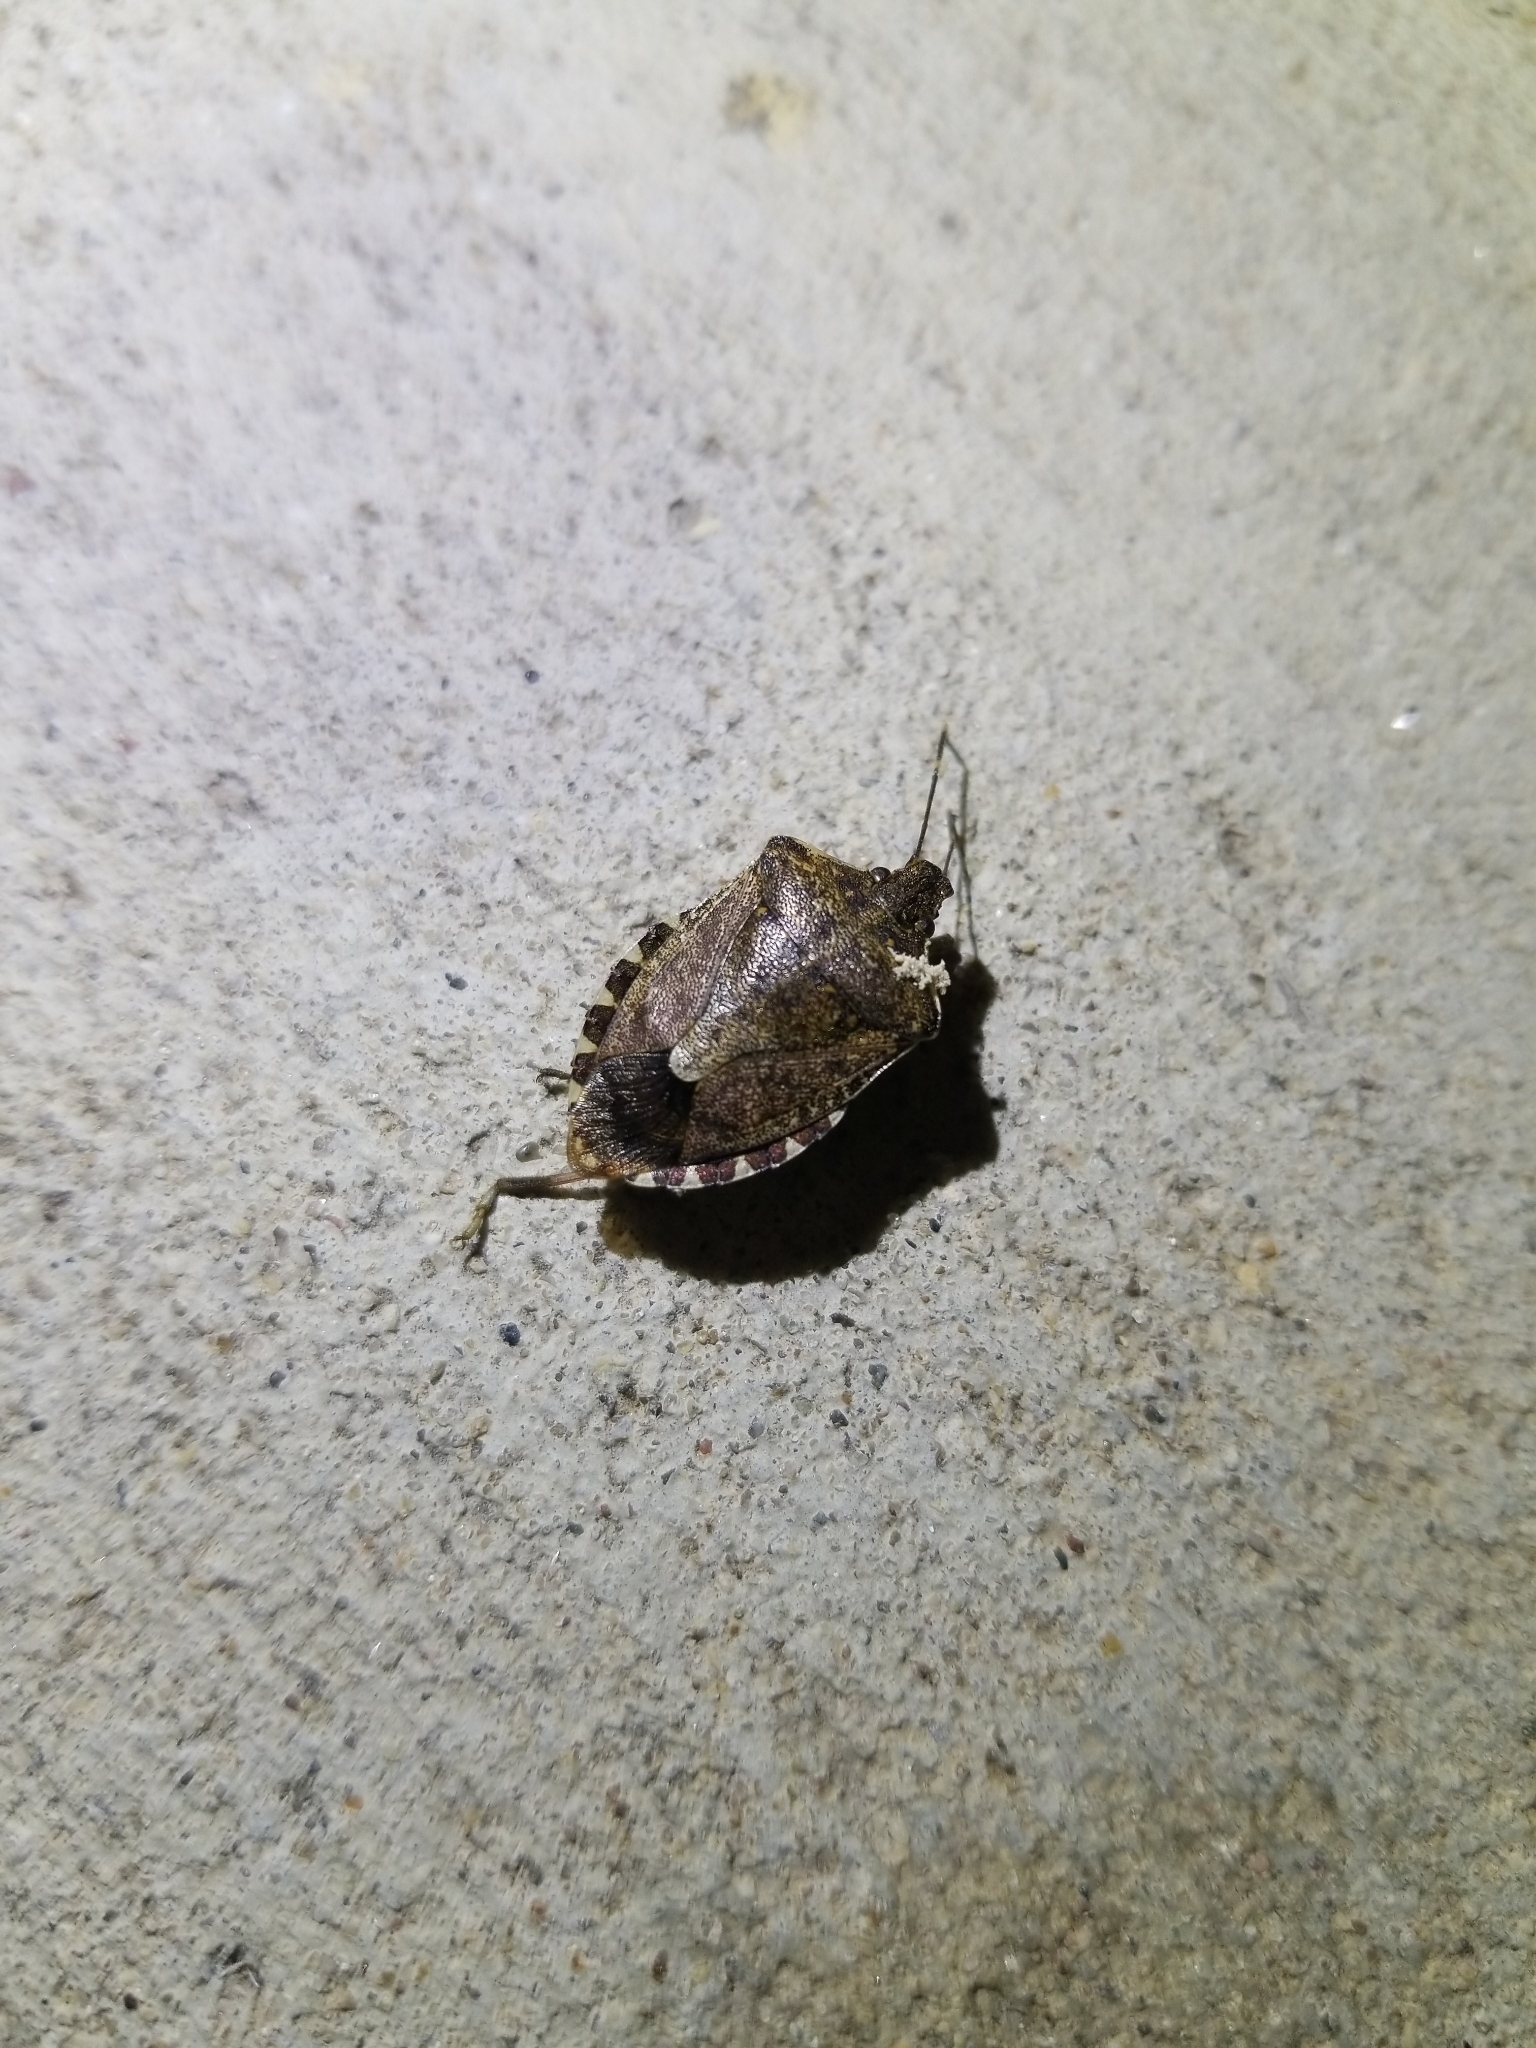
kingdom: Animalia
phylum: Arthropoda
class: Insecta
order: Hemiptera
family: Pentatomidae
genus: Halyomorpha
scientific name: Halyomorpha halys
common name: Brown marmorated stink bug
